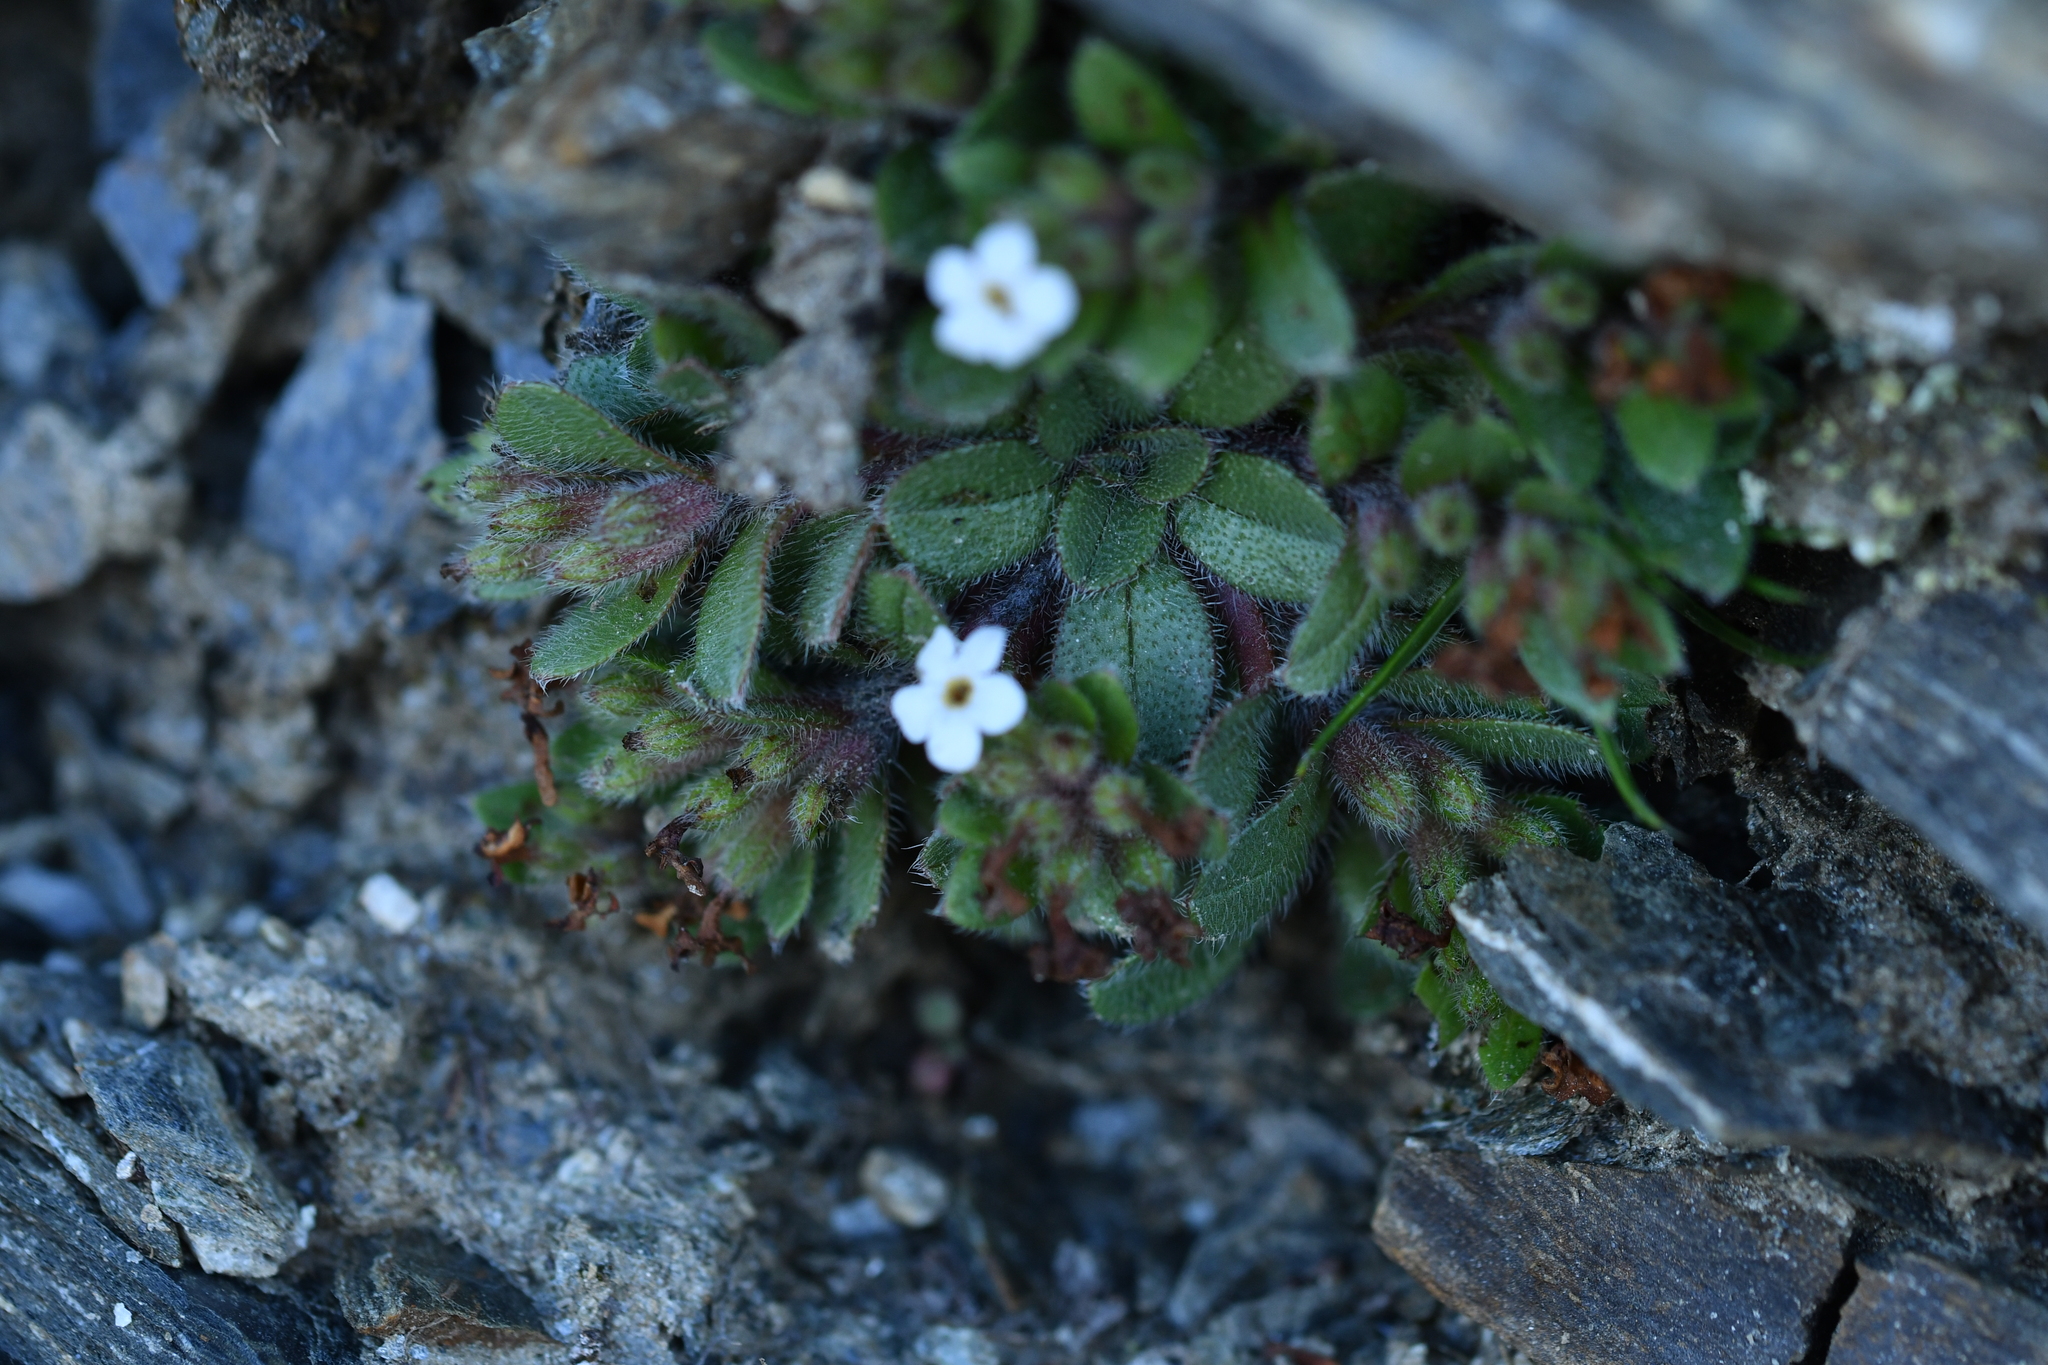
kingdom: Plantae
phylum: Tracheophyta
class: Magnoliopsida
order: Boraginales
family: Boraginaceae
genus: Myosotis
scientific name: Myosotis lyallii
